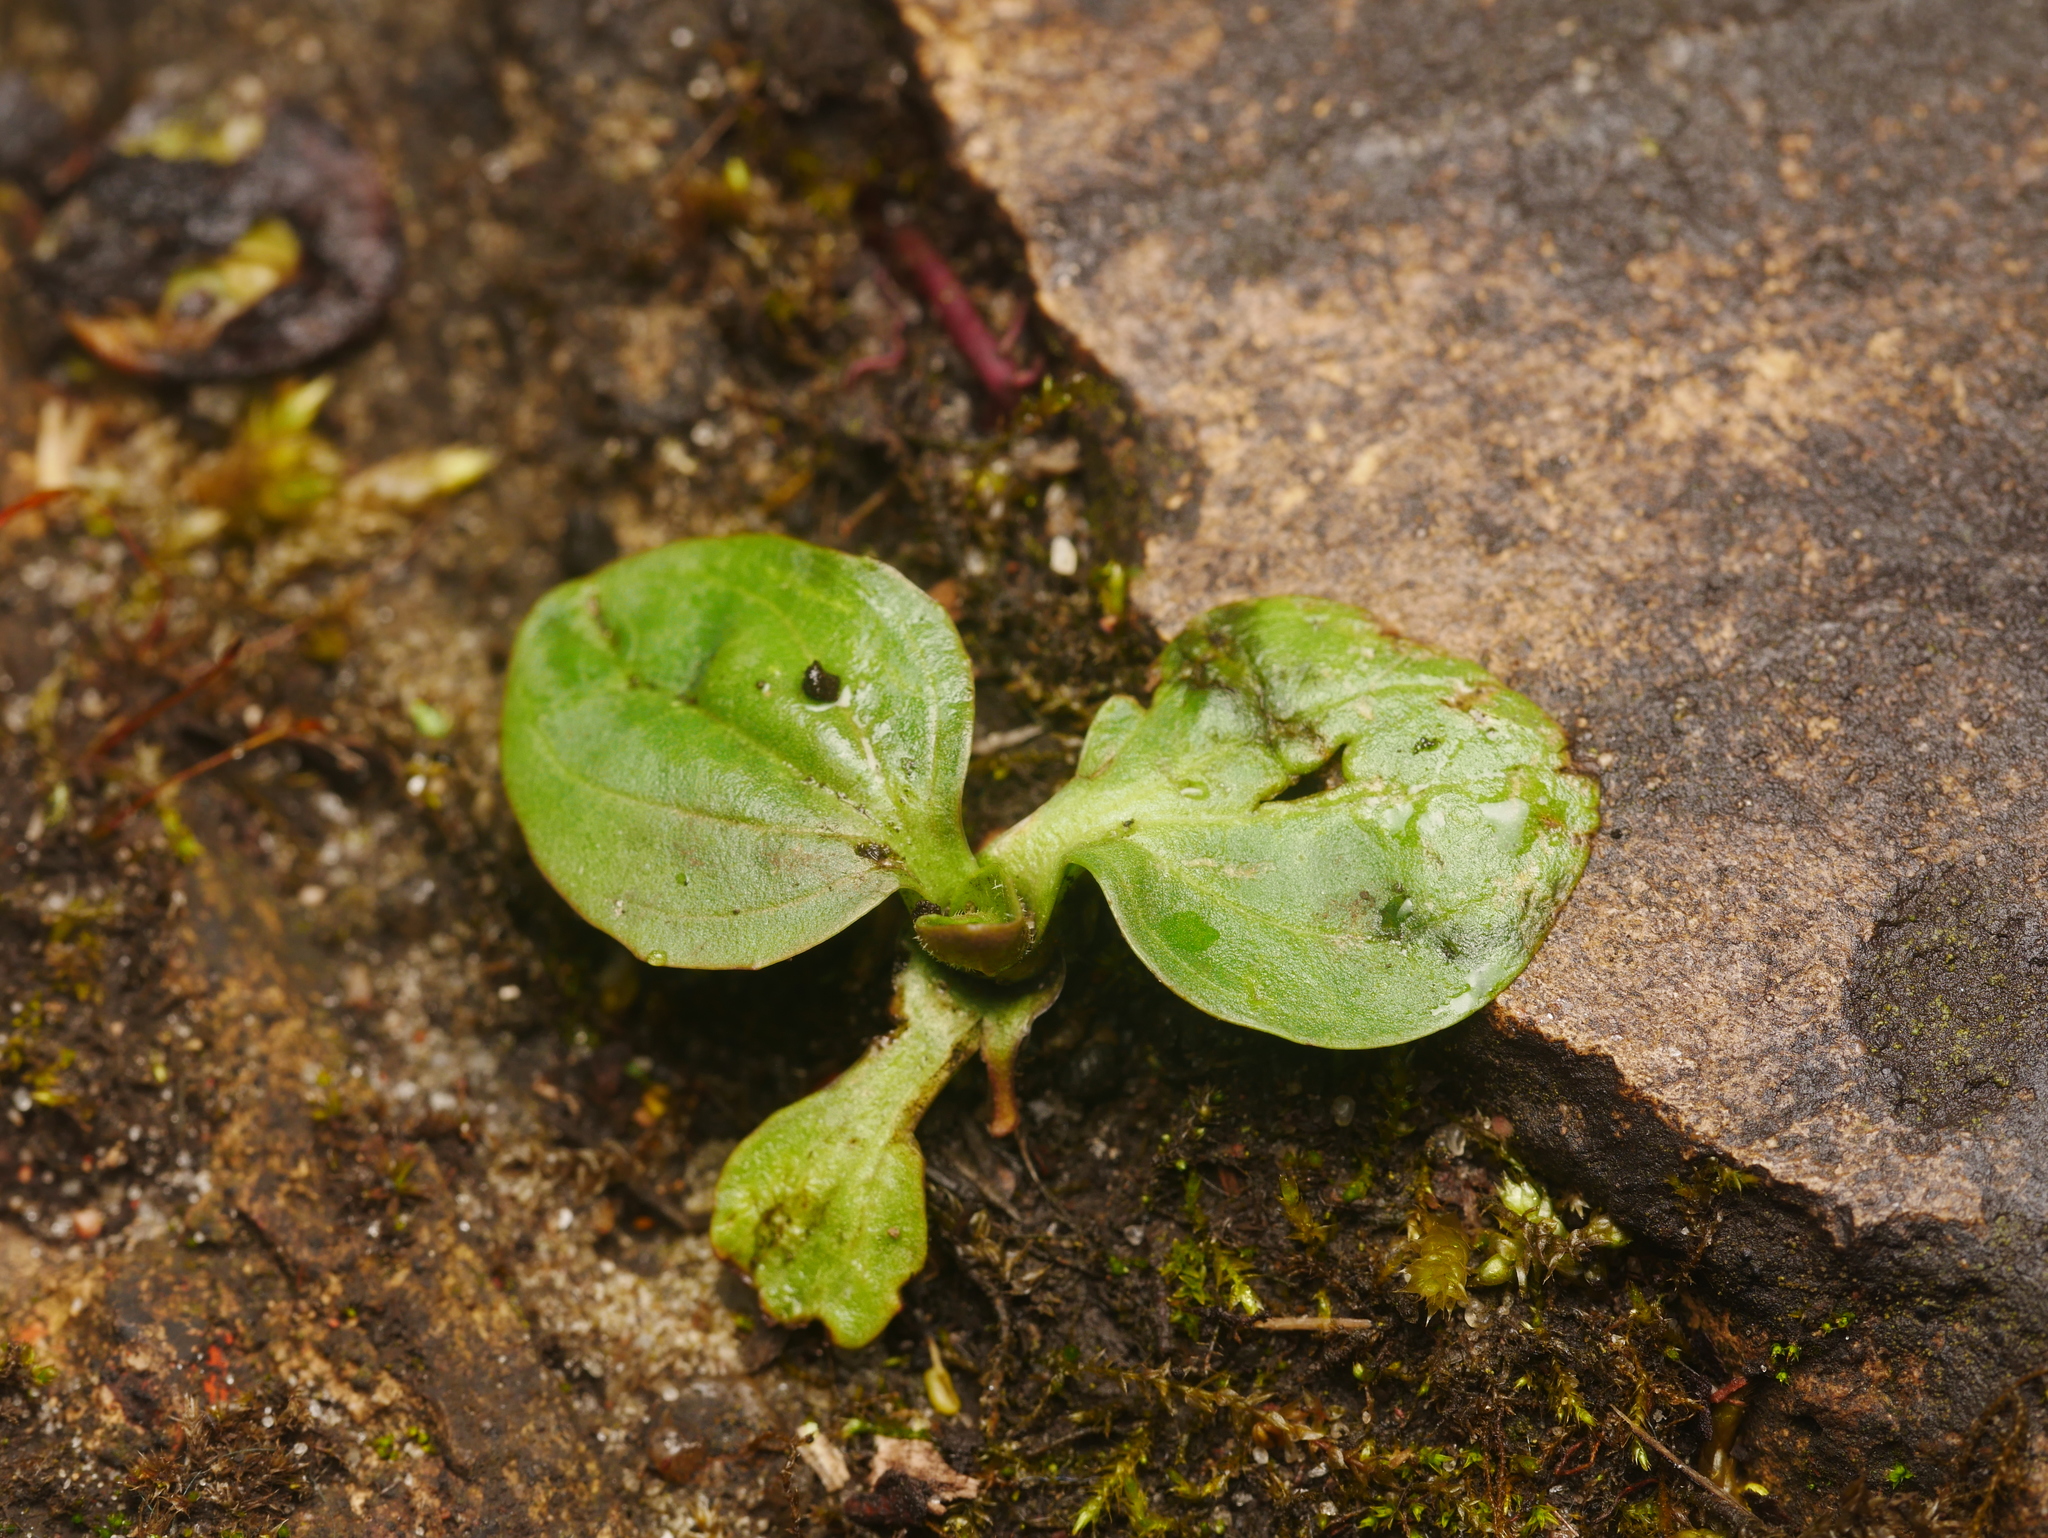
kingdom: Plantae
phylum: Tracheophyta
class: Magnoliopsida
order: Lamiales
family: Plantaginaceae
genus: Plantago
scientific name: Plantago major
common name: Common plantain
